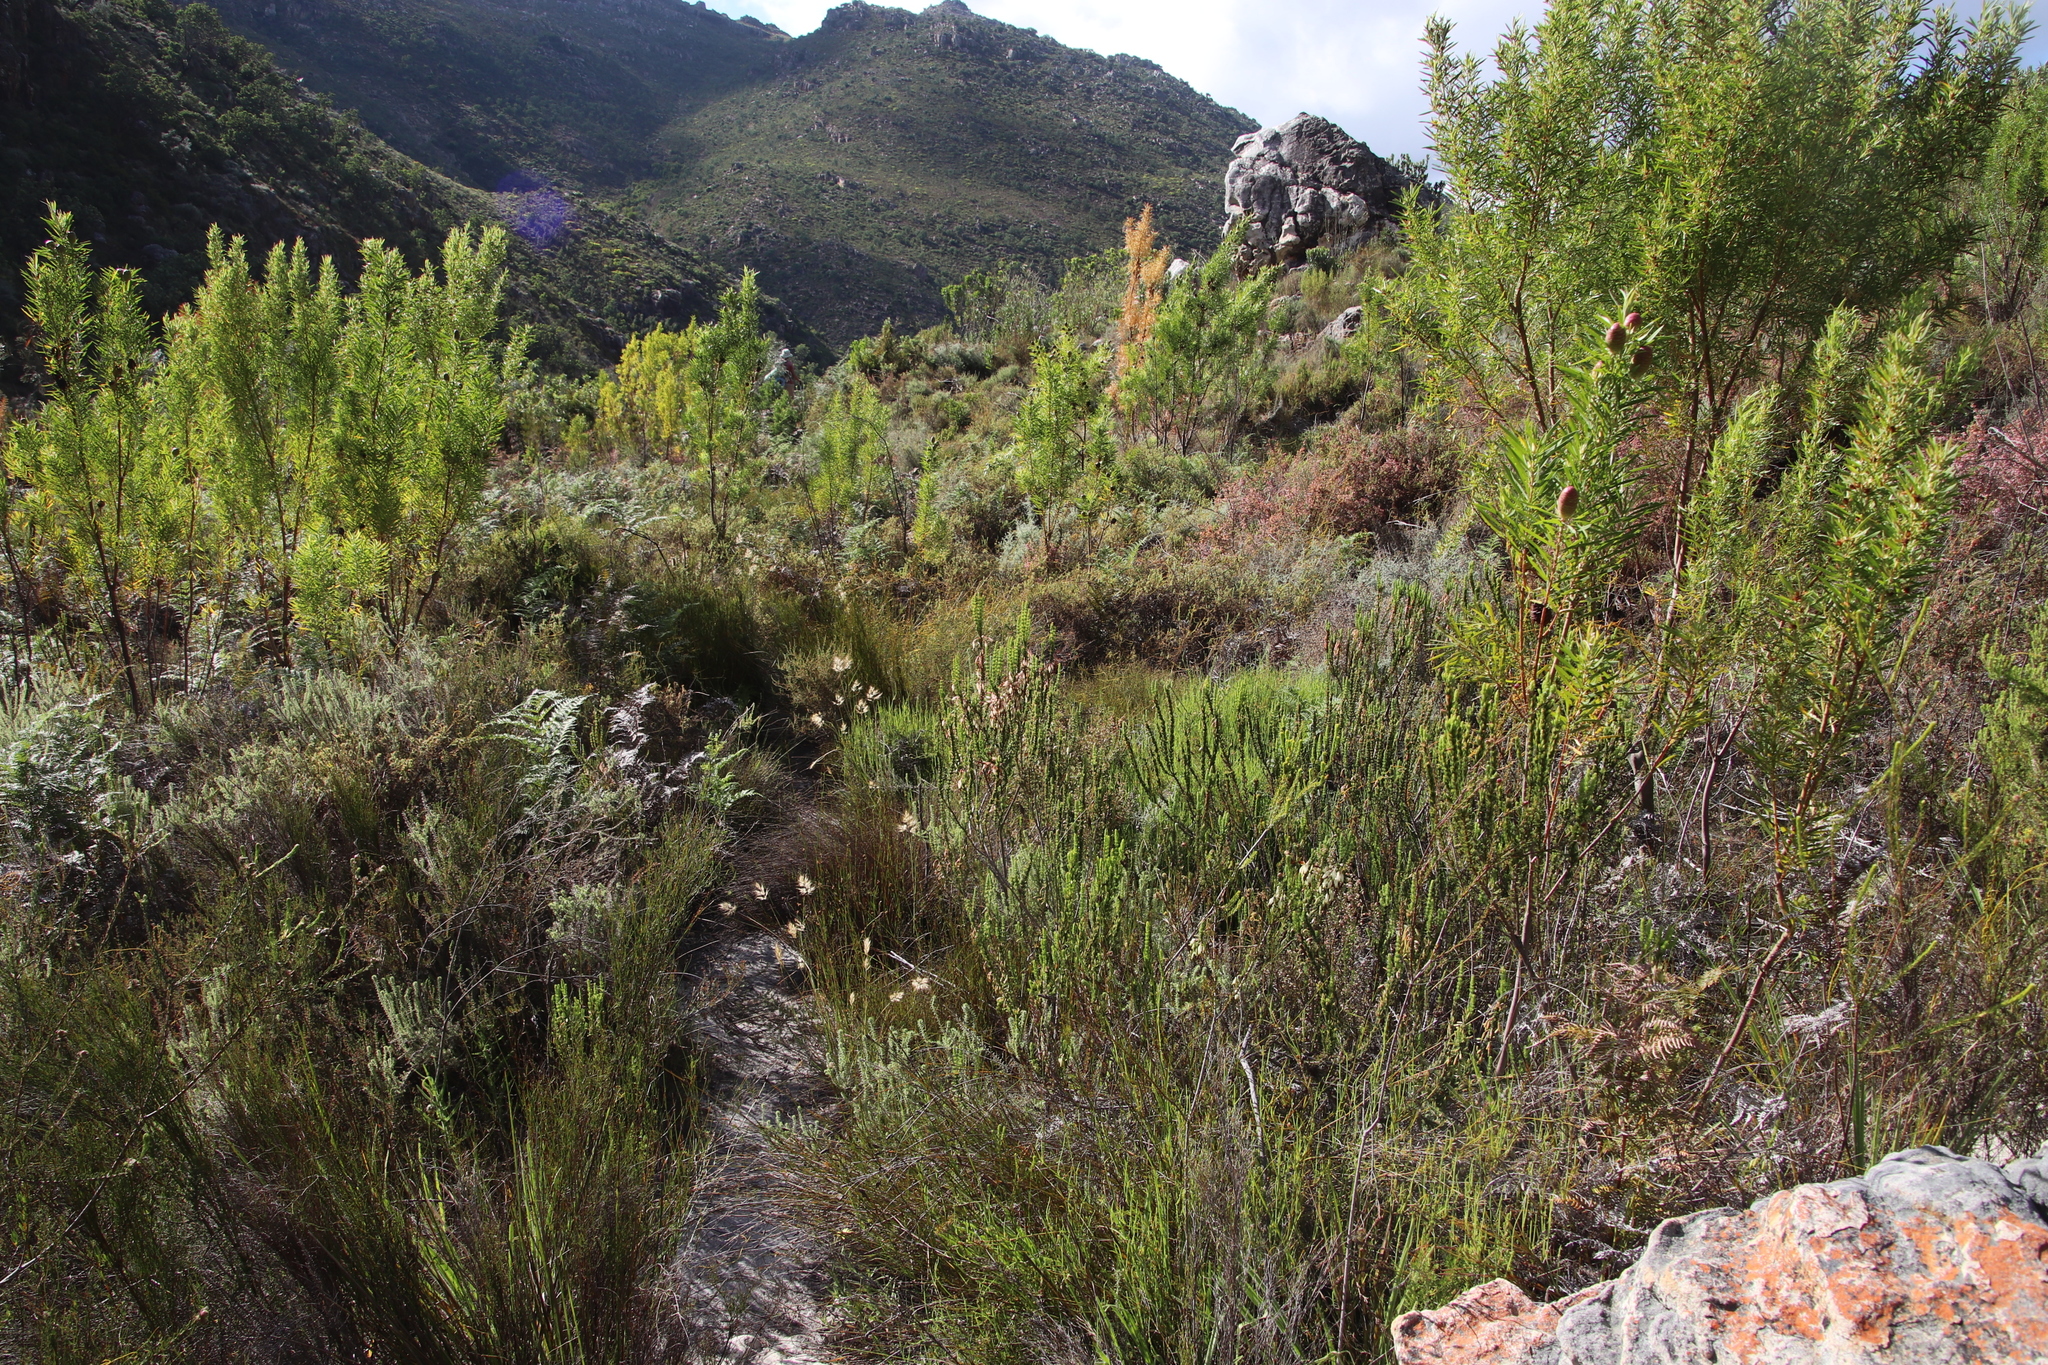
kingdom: Plantae
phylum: Tracheophyta
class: Magnoliopsida
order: Ericales
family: Ericaceae
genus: Erica
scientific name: Erica plukenetii
